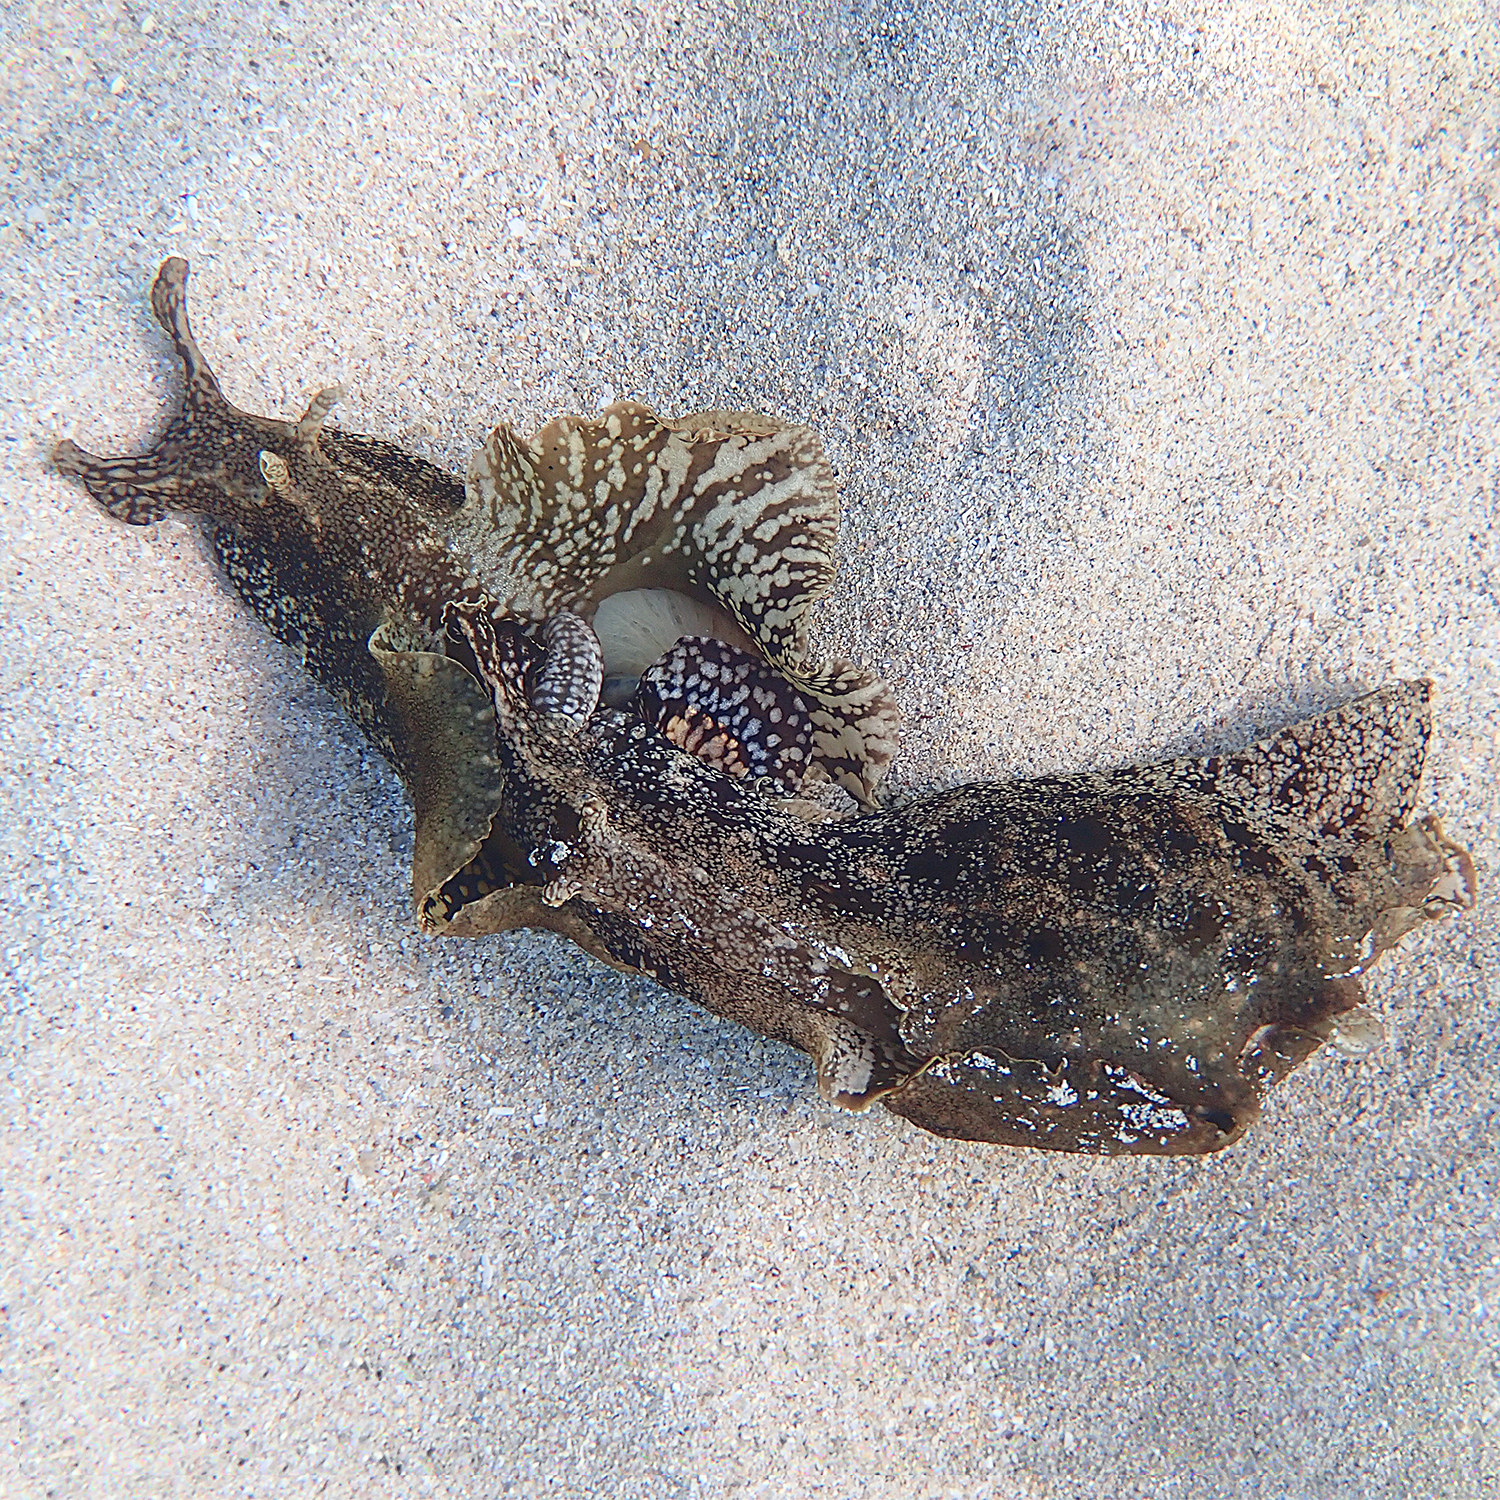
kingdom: Animalia
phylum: Mollusca
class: Gastropoda
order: Aplysiida
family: Aplysiidae
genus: Aplysia
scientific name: Aplysia reticulata
